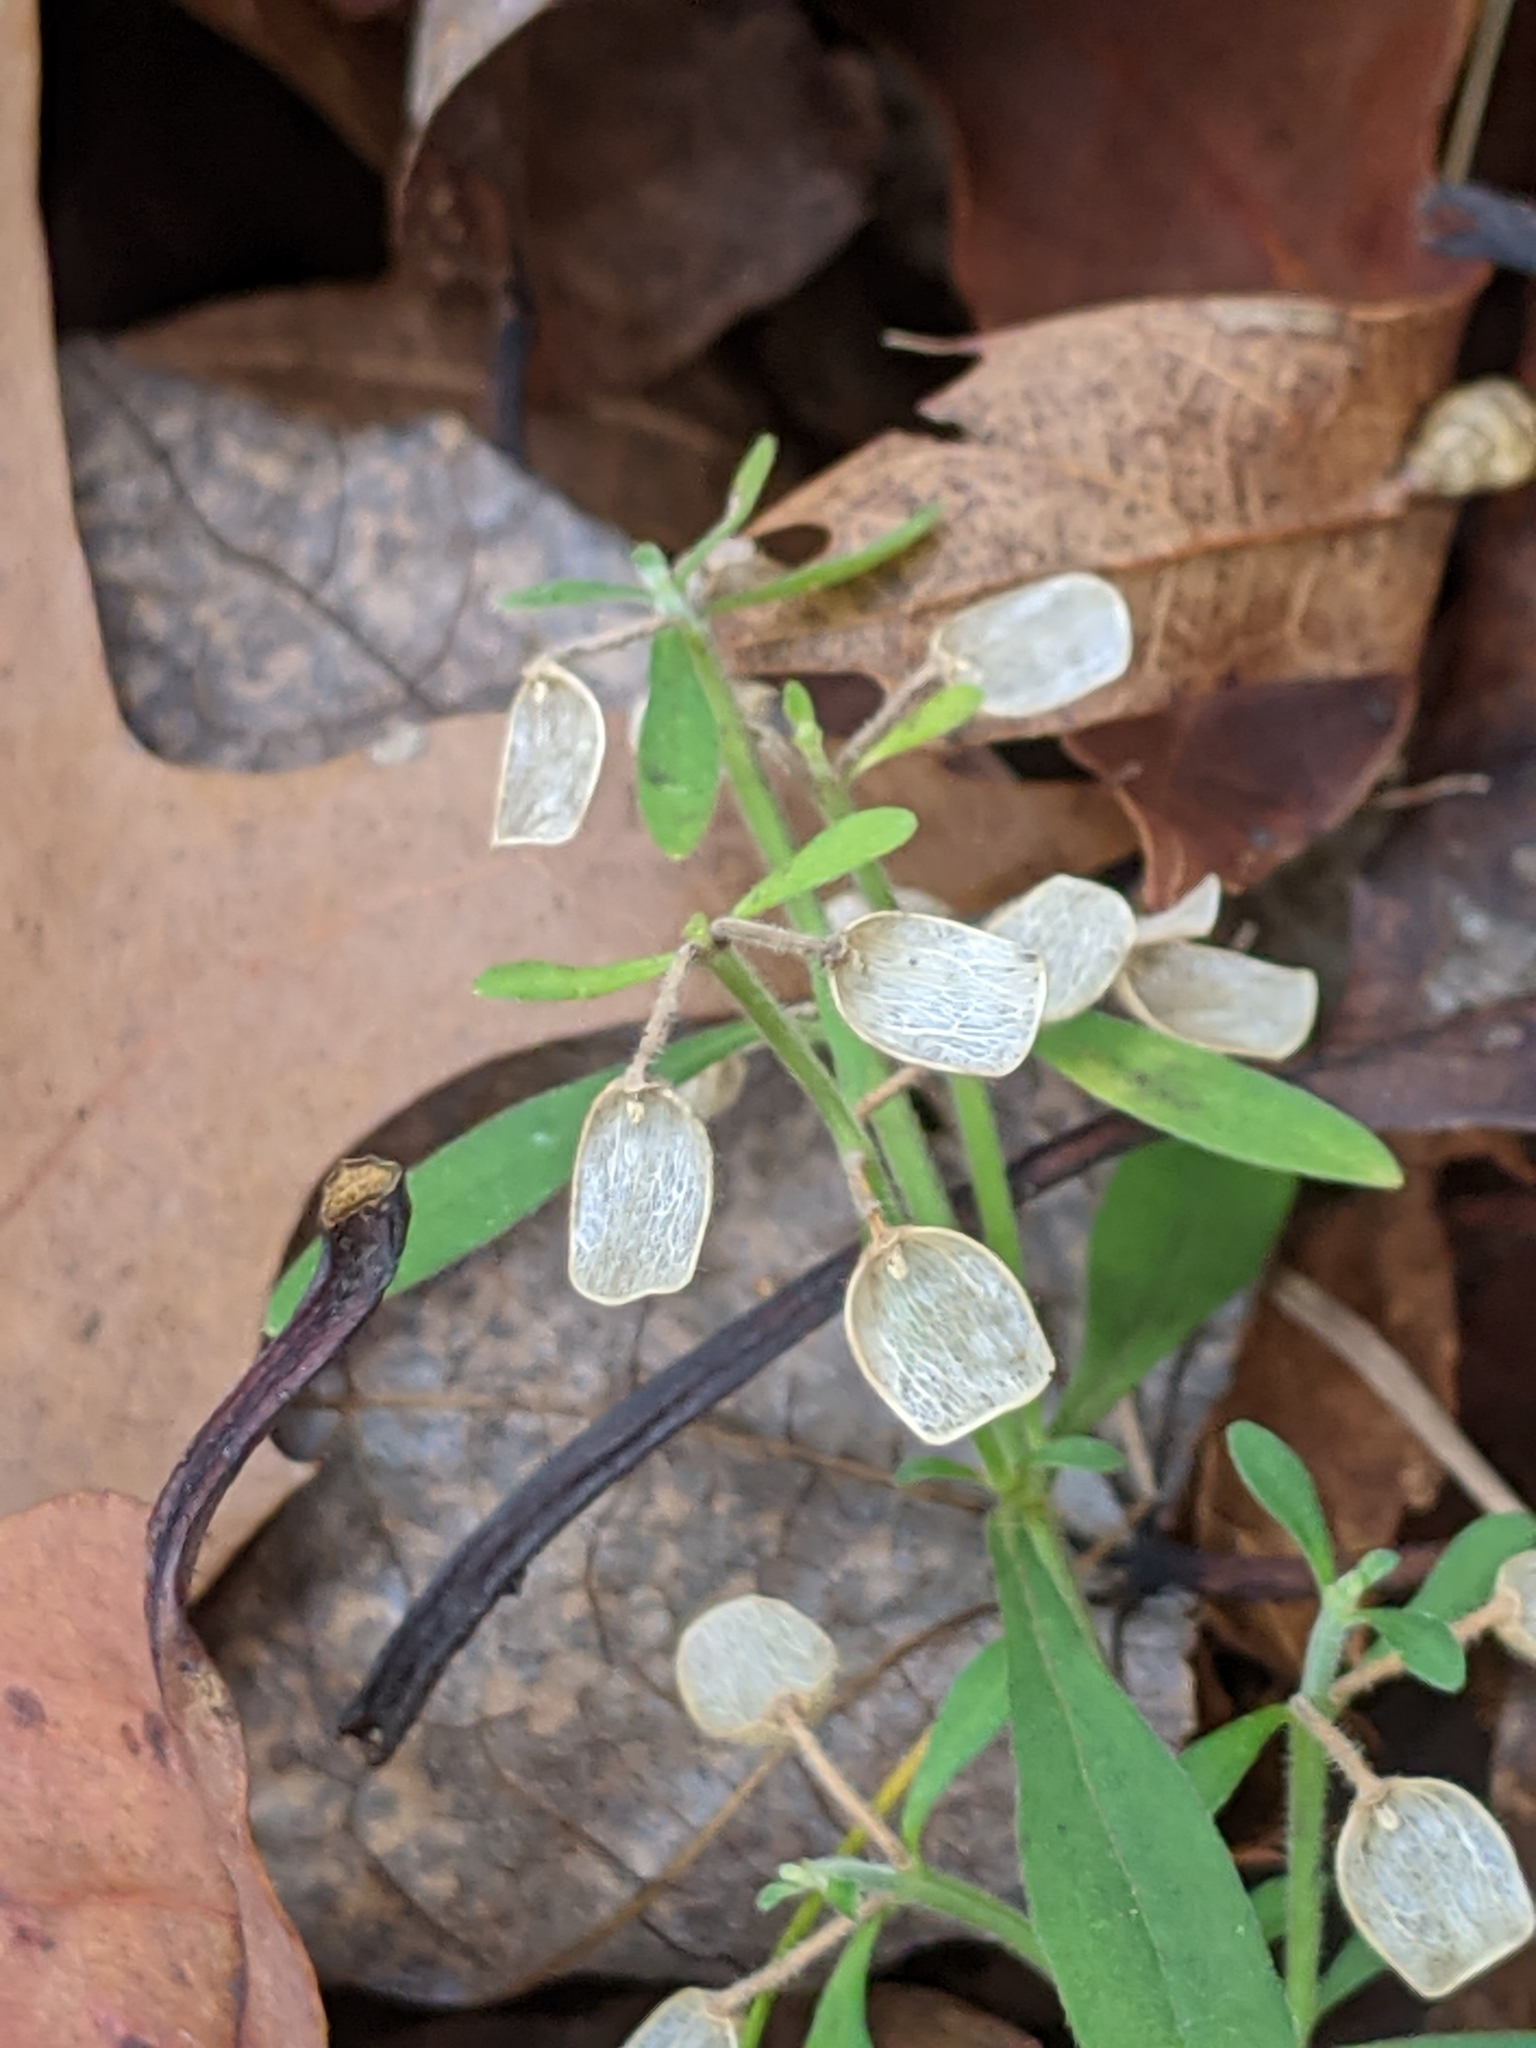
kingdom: Plantae
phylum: Tracheophyta
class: Magnoliopsida
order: Lamiales
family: Lamiaceae
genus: Scutellaria
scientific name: Scutellaria integrifolia
